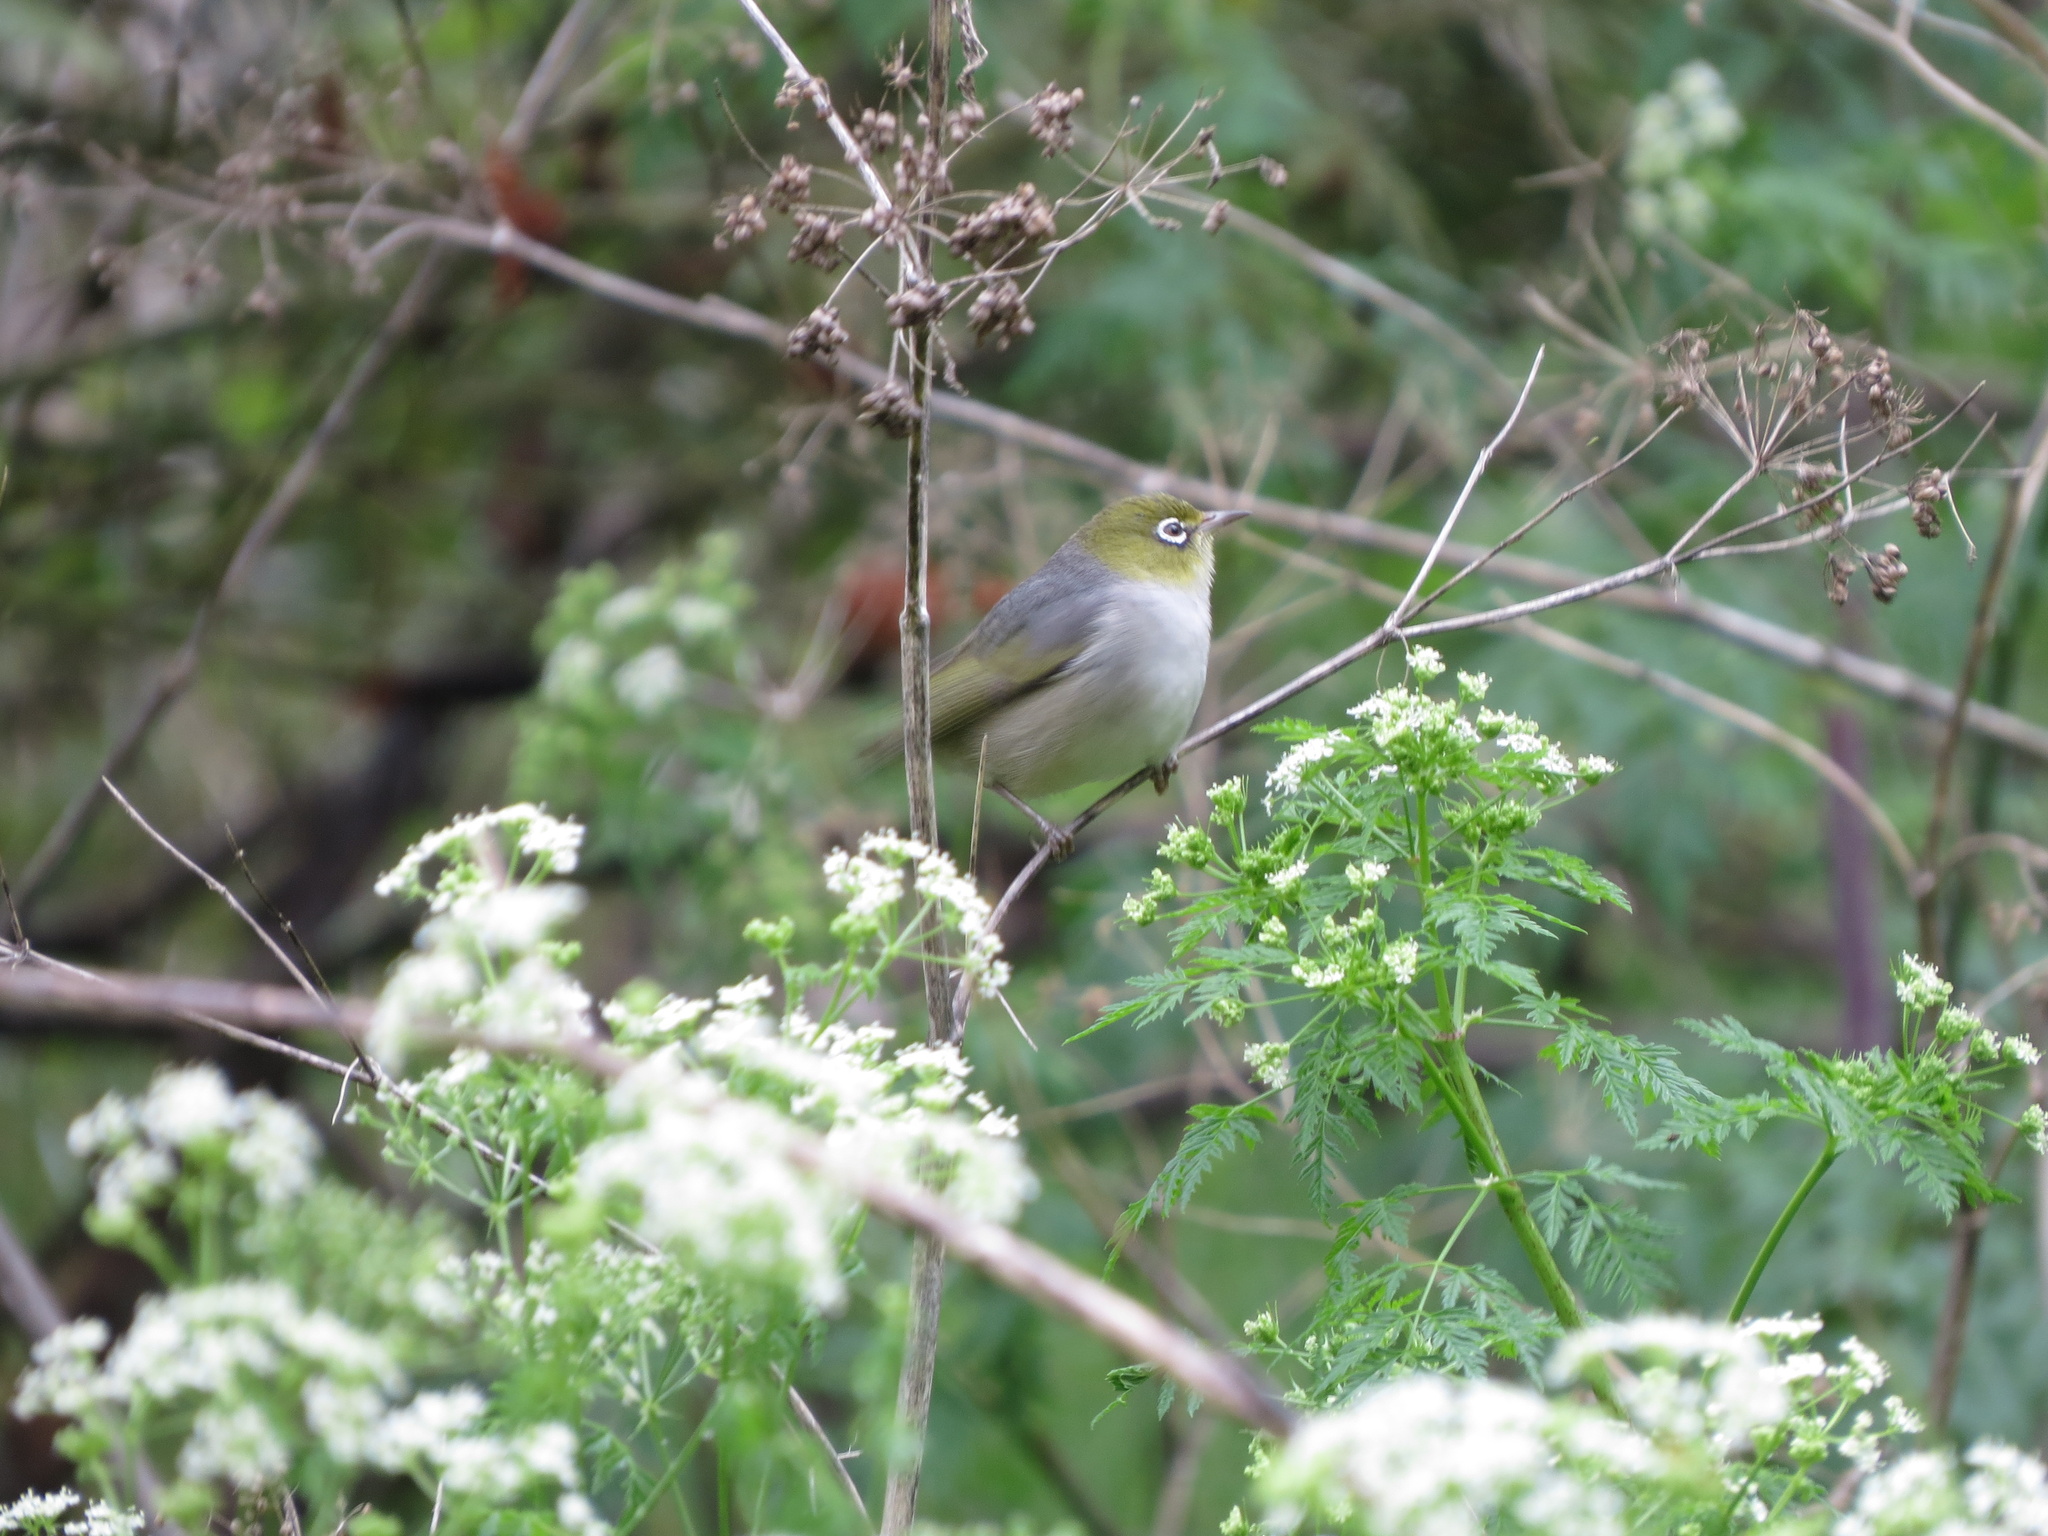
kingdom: Animalia
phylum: Chordata
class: Aves
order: Passeriformes
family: Zosteropidae
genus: Zosterops
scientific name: Zosterops lateralis
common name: Silvereye
